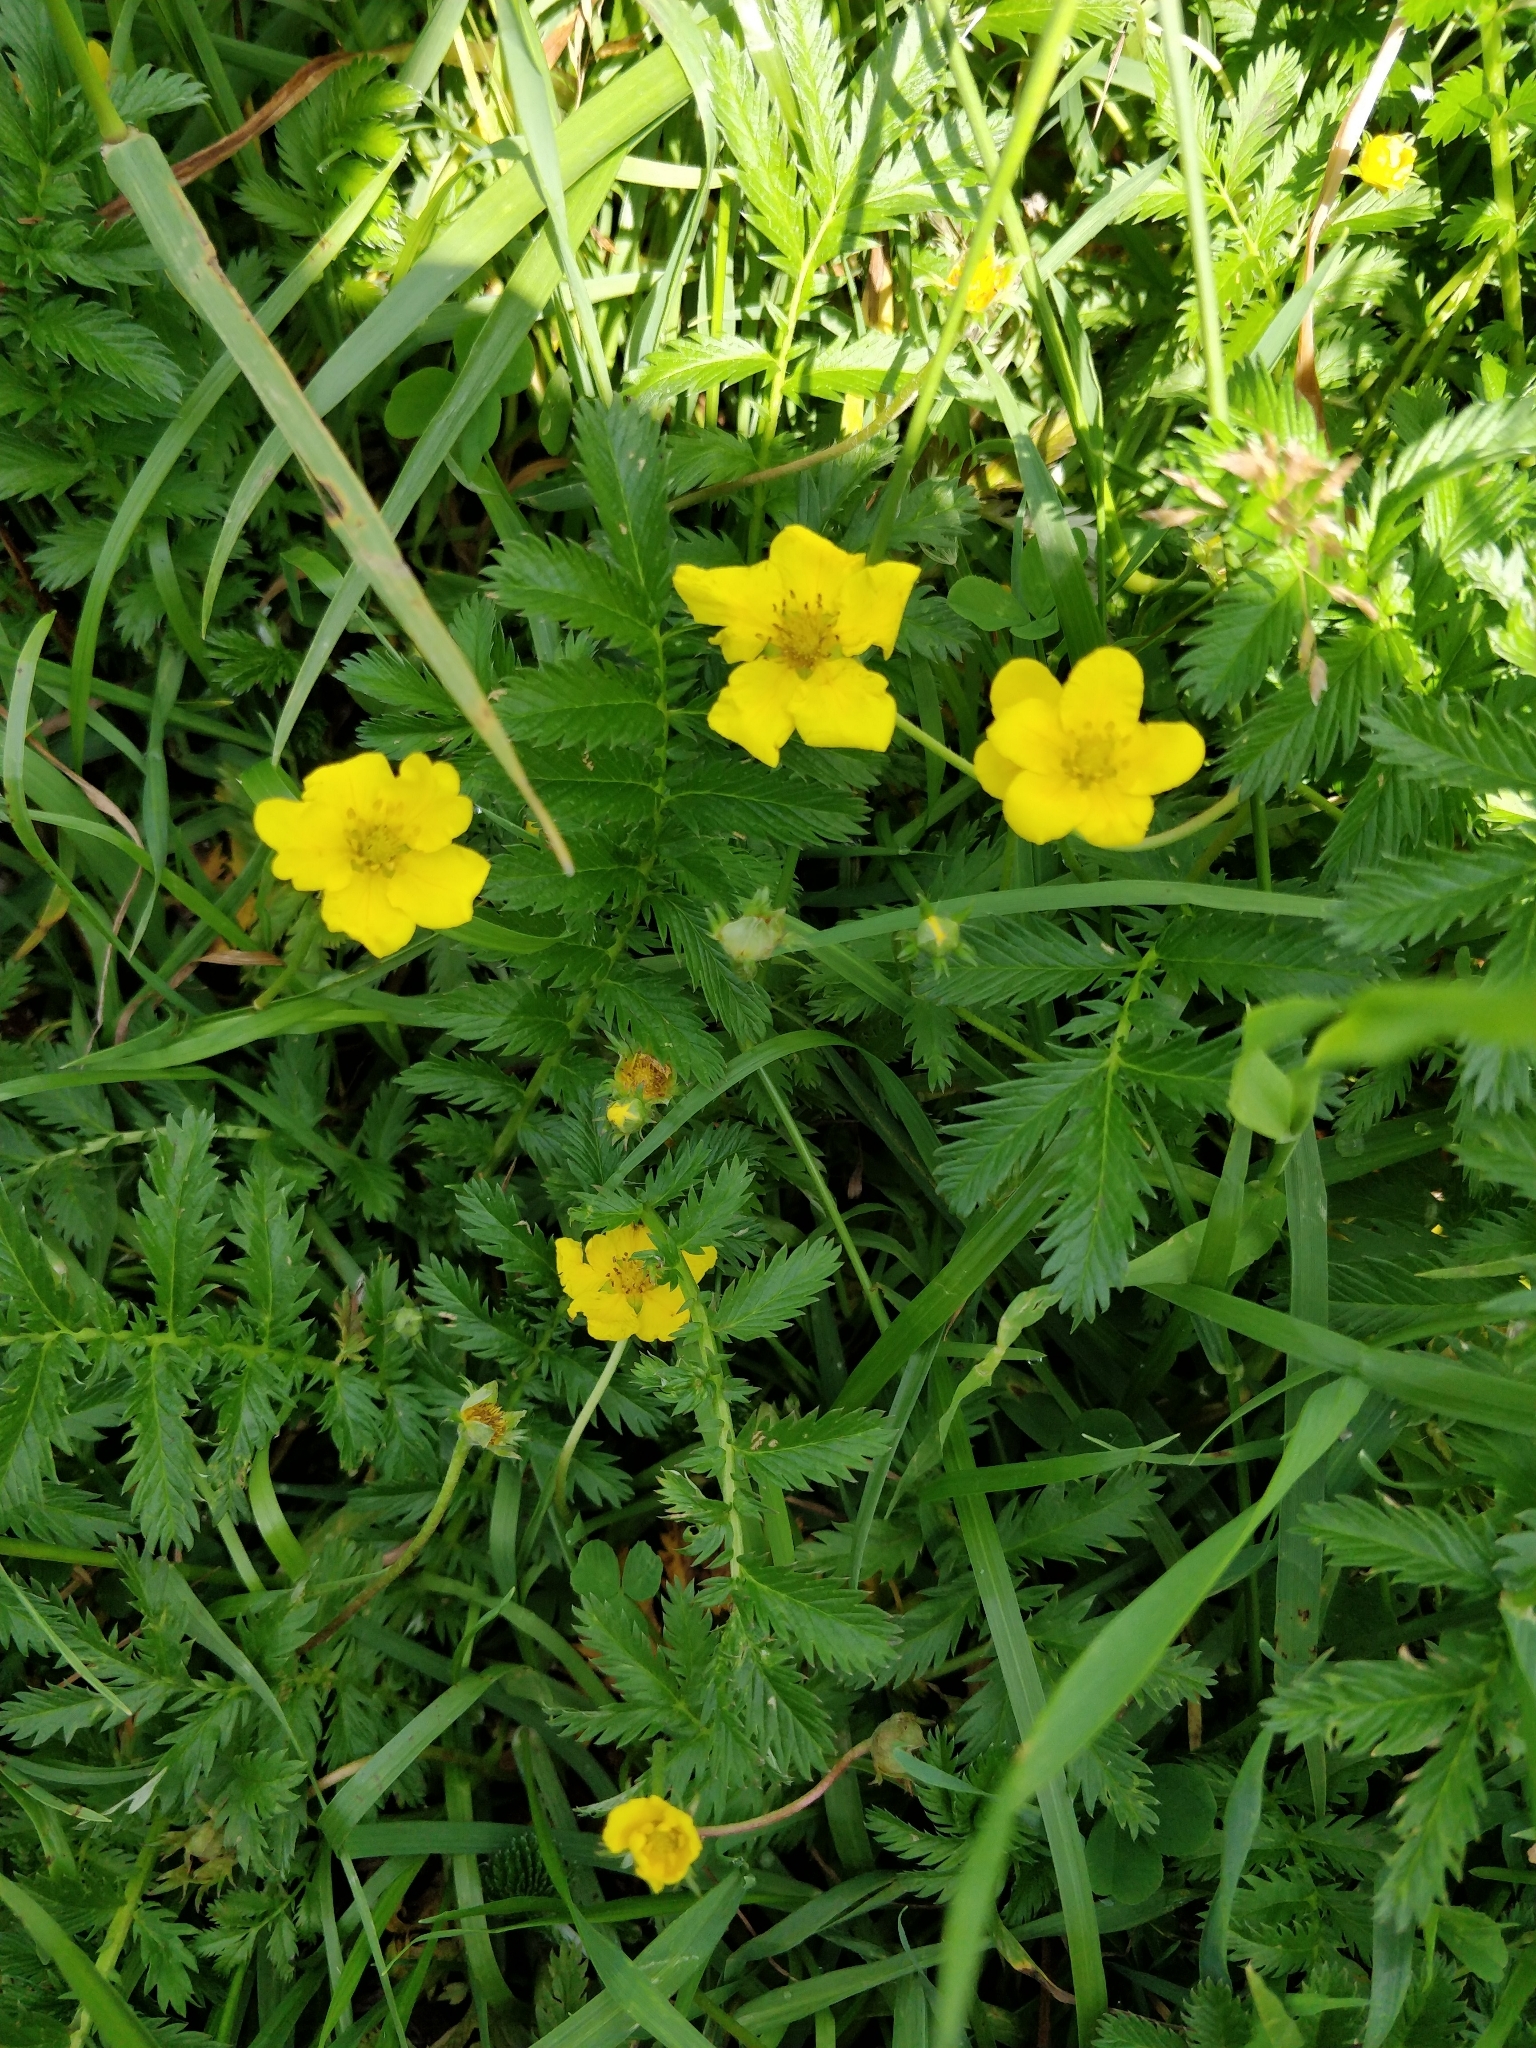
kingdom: Plantae
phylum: Tracheophyta
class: Magnoliopsida
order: Rosales
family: Rosaceae
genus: Argentina
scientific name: Argentina anserina
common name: Common silverweed
